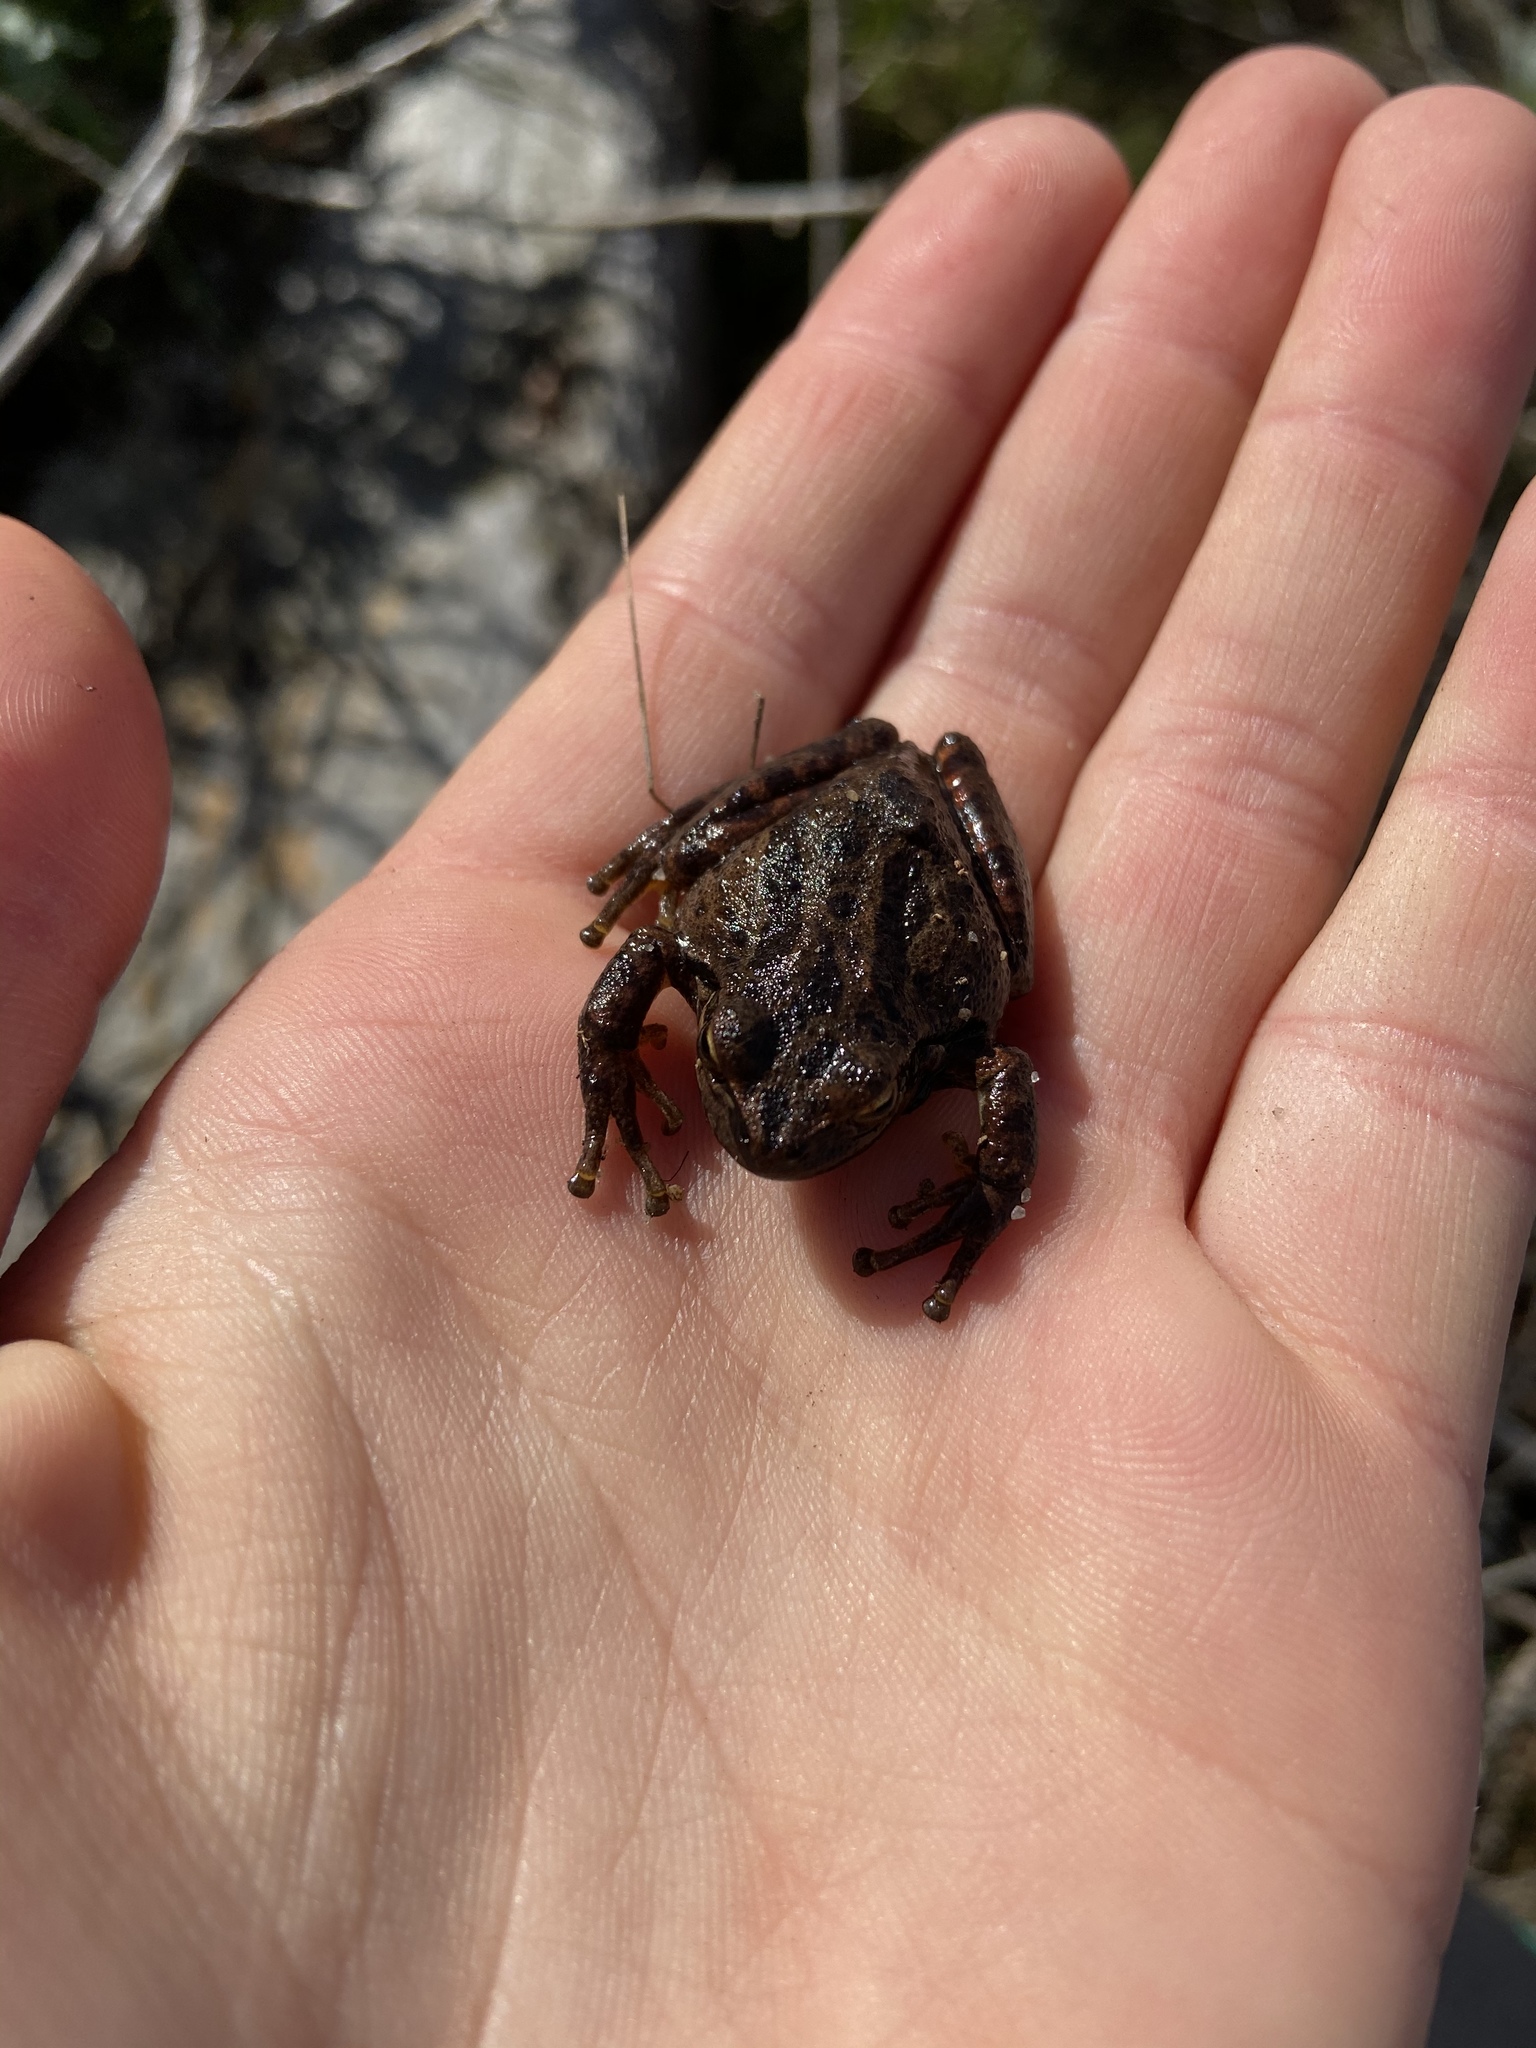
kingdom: Animalia
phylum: Chordata
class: Amphibia
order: Anura
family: Hylidae
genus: Pseudacris
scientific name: Pseudacris regilla
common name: Pacific chorus frog
